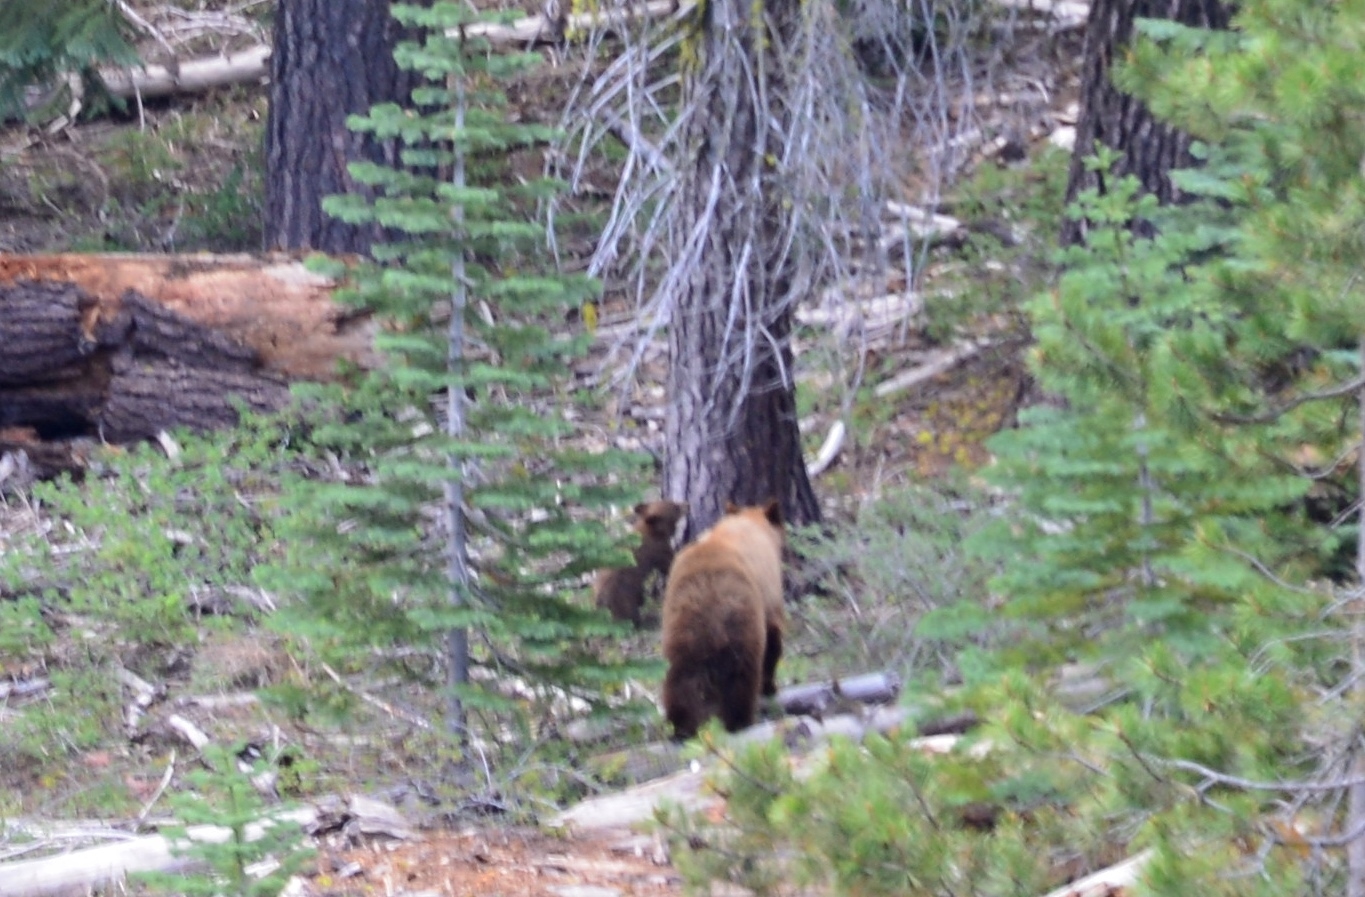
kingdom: Animalia
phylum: Chordata
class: Mammalia
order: Carnivora
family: Ursidae
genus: Ursus
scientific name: Ursus americanus
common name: American black bear
